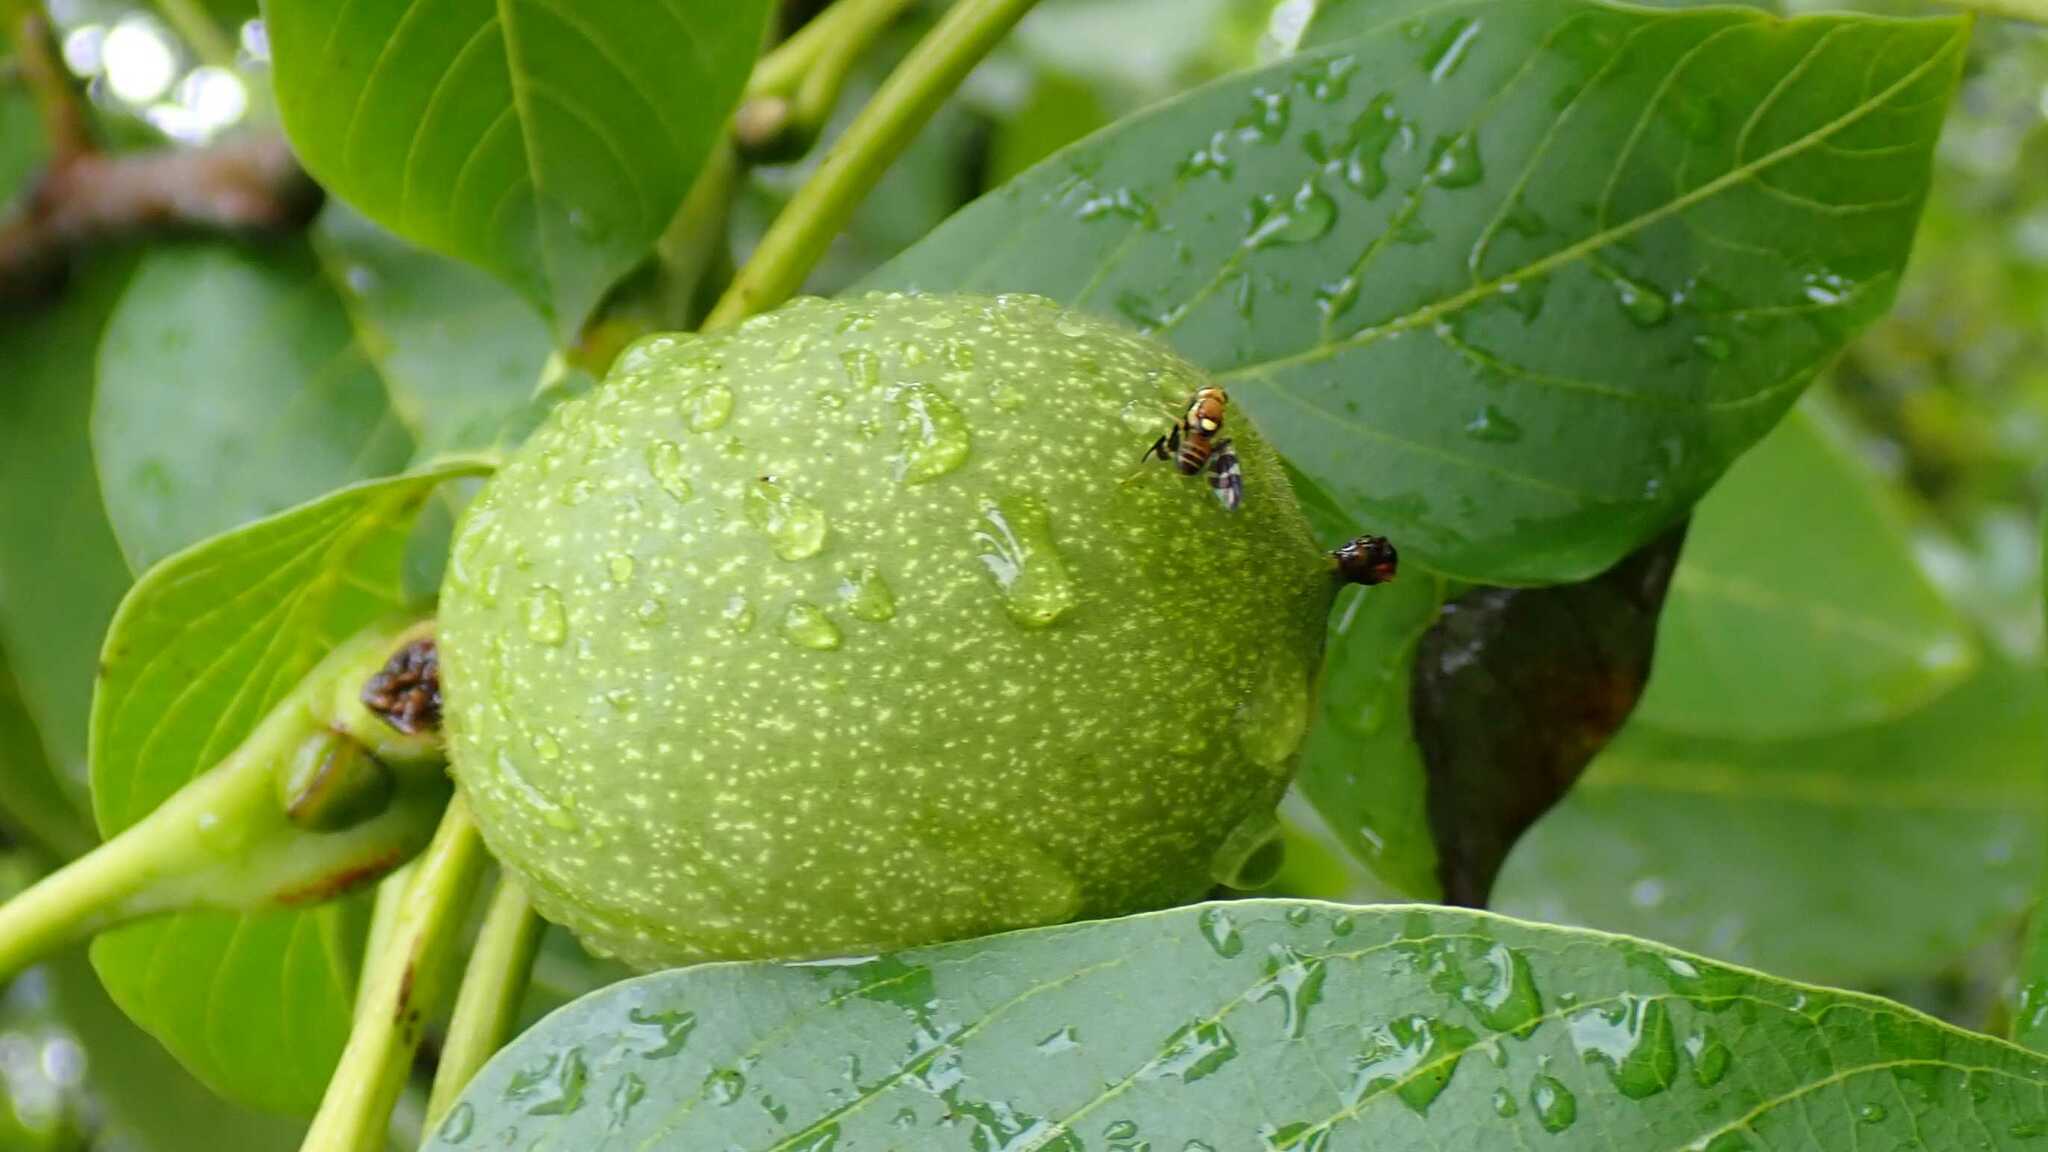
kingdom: Animalia
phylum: Arthropoda
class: Insecta
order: Diptera
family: Tephritidae
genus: Rhagoletis
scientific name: Rhagoletis completa
